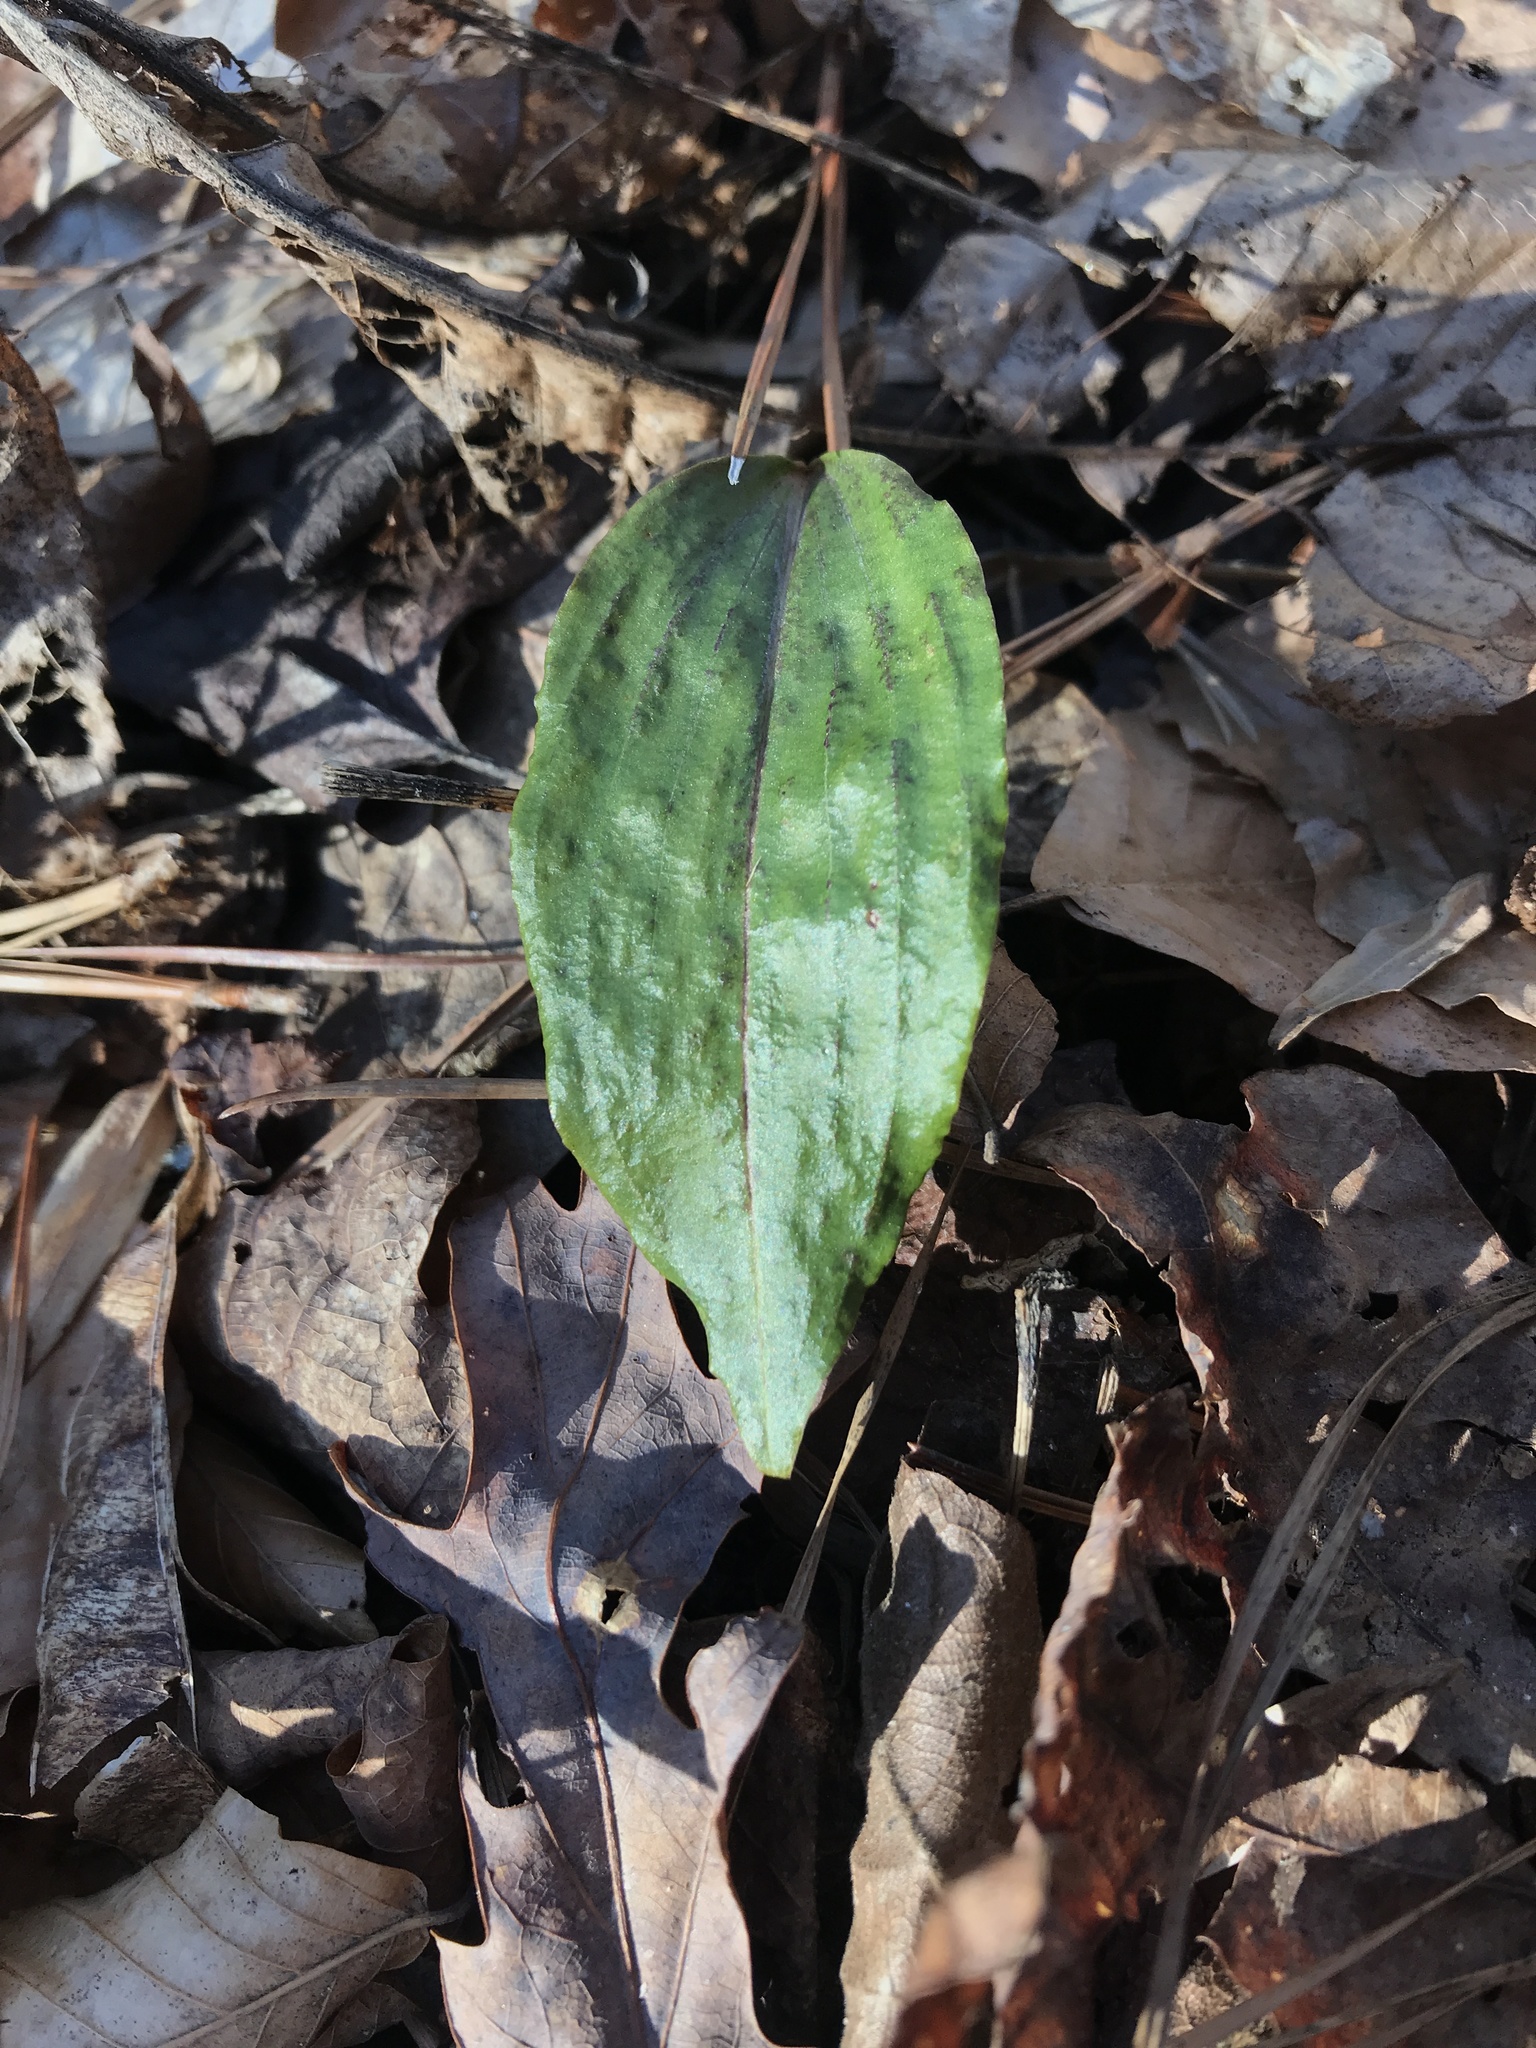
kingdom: Plantae
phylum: Tracheophyta
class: Liliopsida
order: Asparagales
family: Orchidaceae
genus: Tipularia
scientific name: Tipularia discolor
